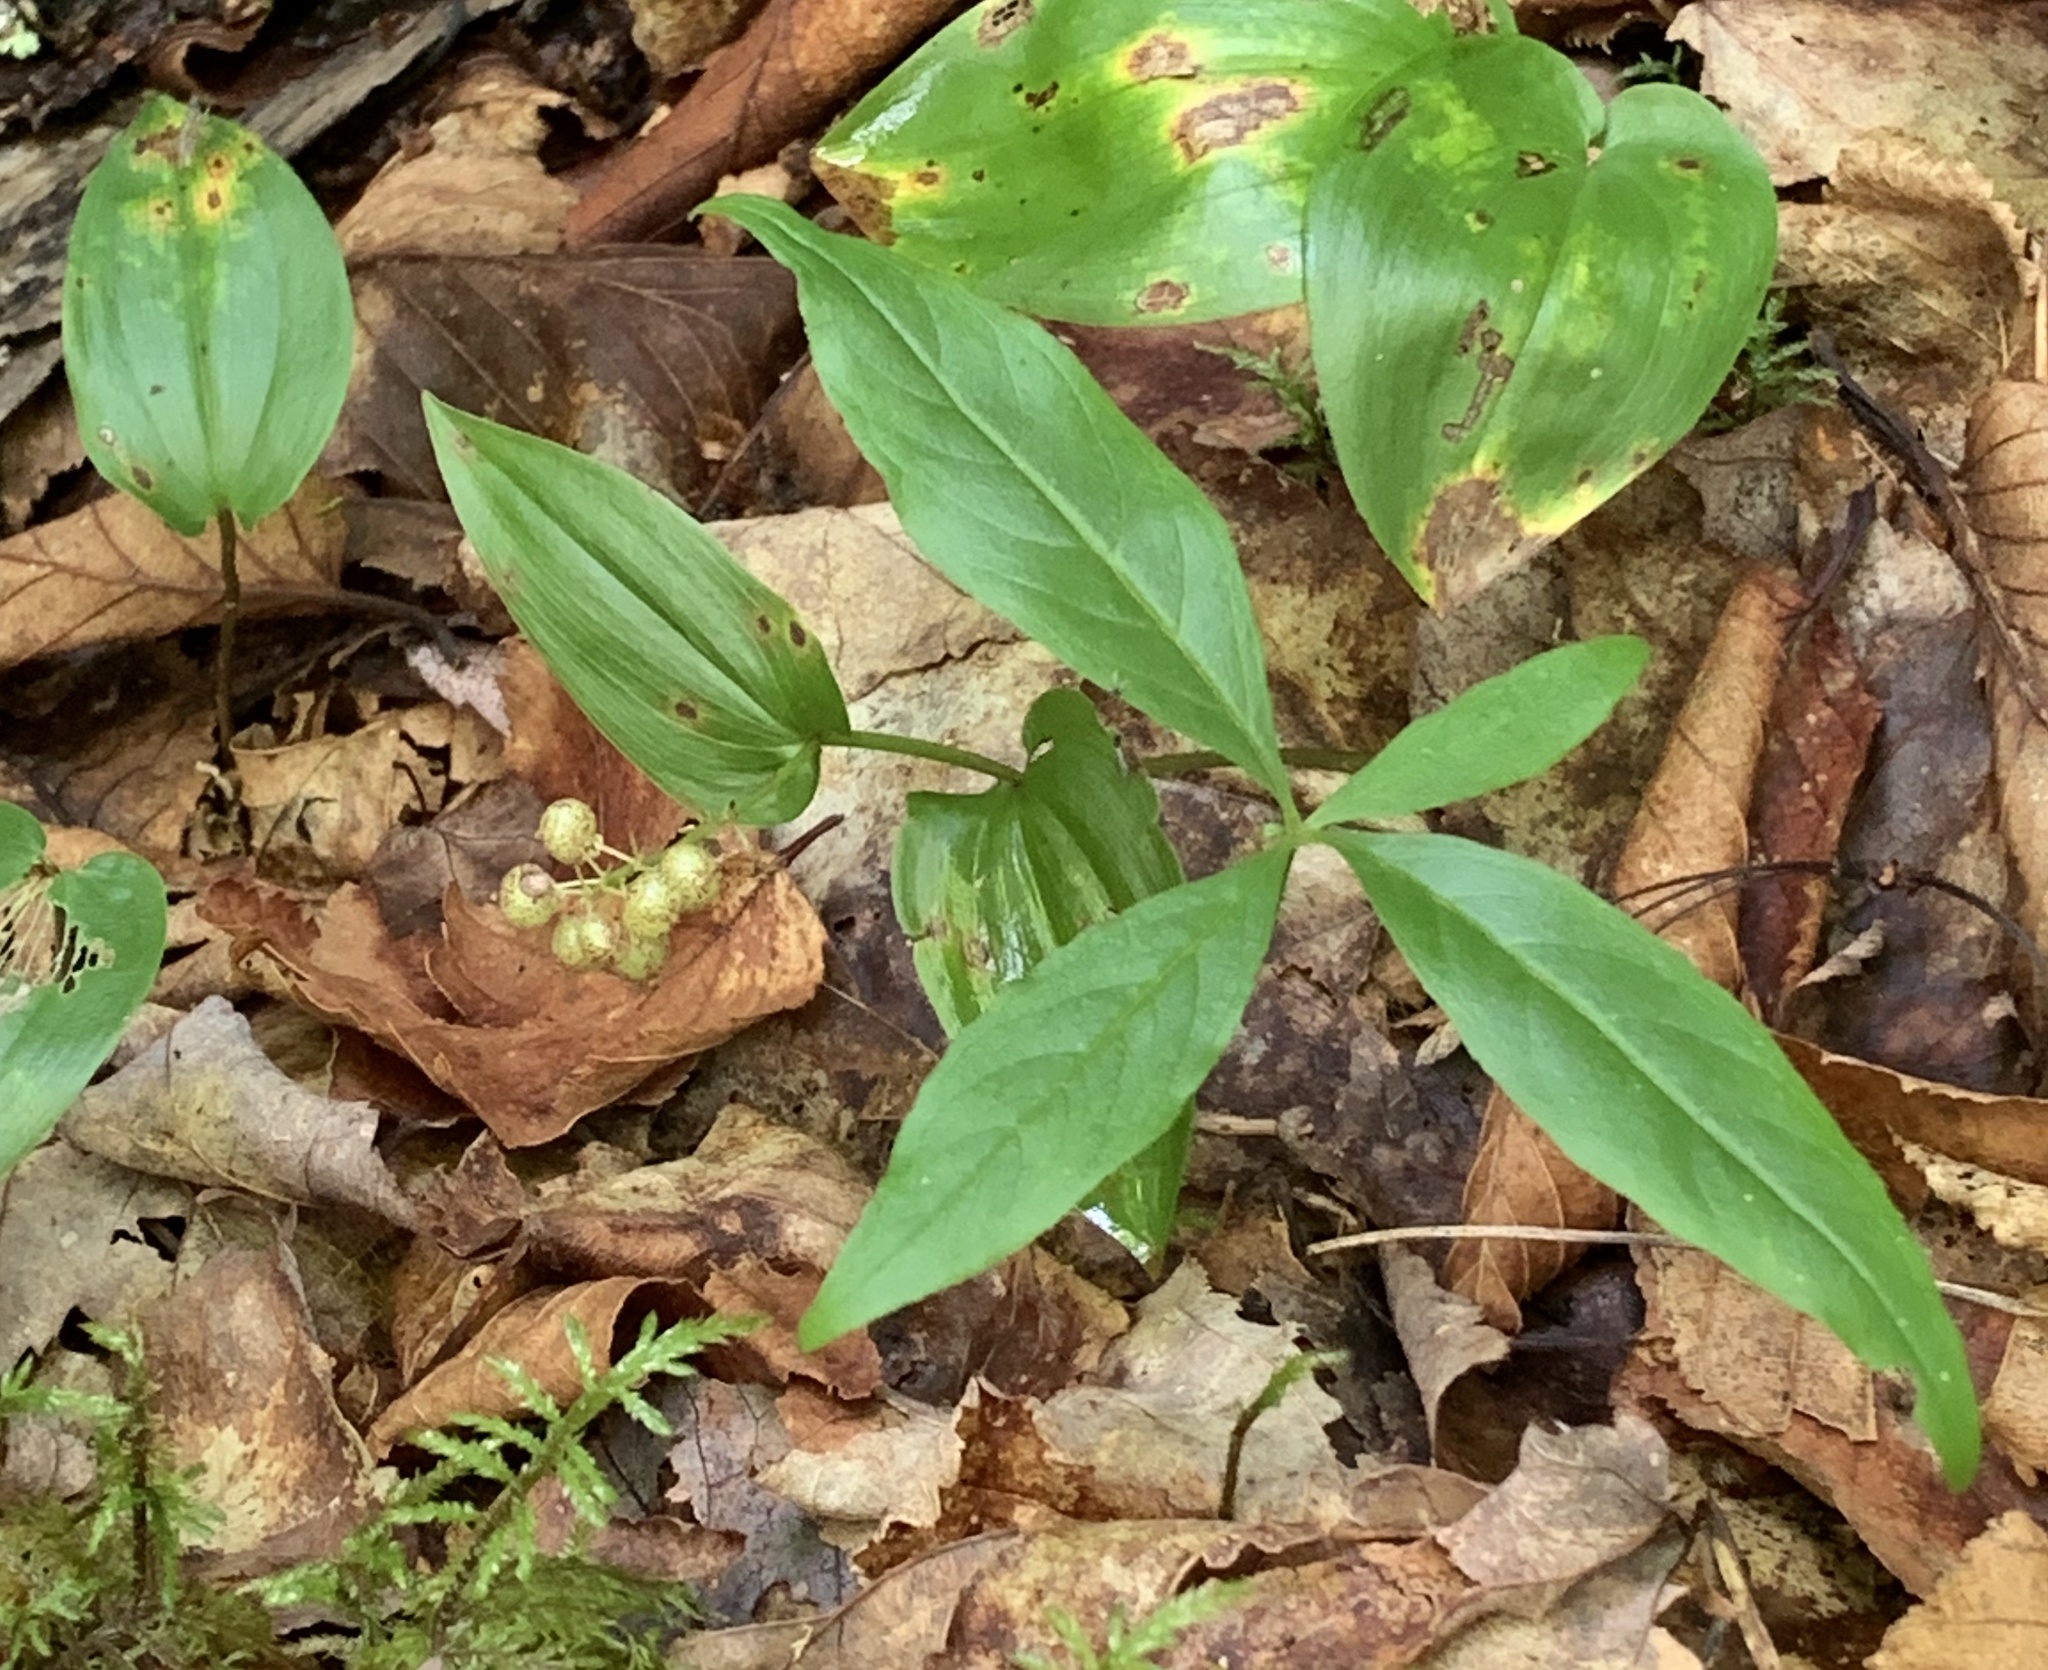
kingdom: Plantae
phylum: Tracheophyta
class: Magnoliopsida
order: Ericales
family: Primulaceae
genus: Lysimachia
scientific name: Lysimachia borealis
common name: American starflower
